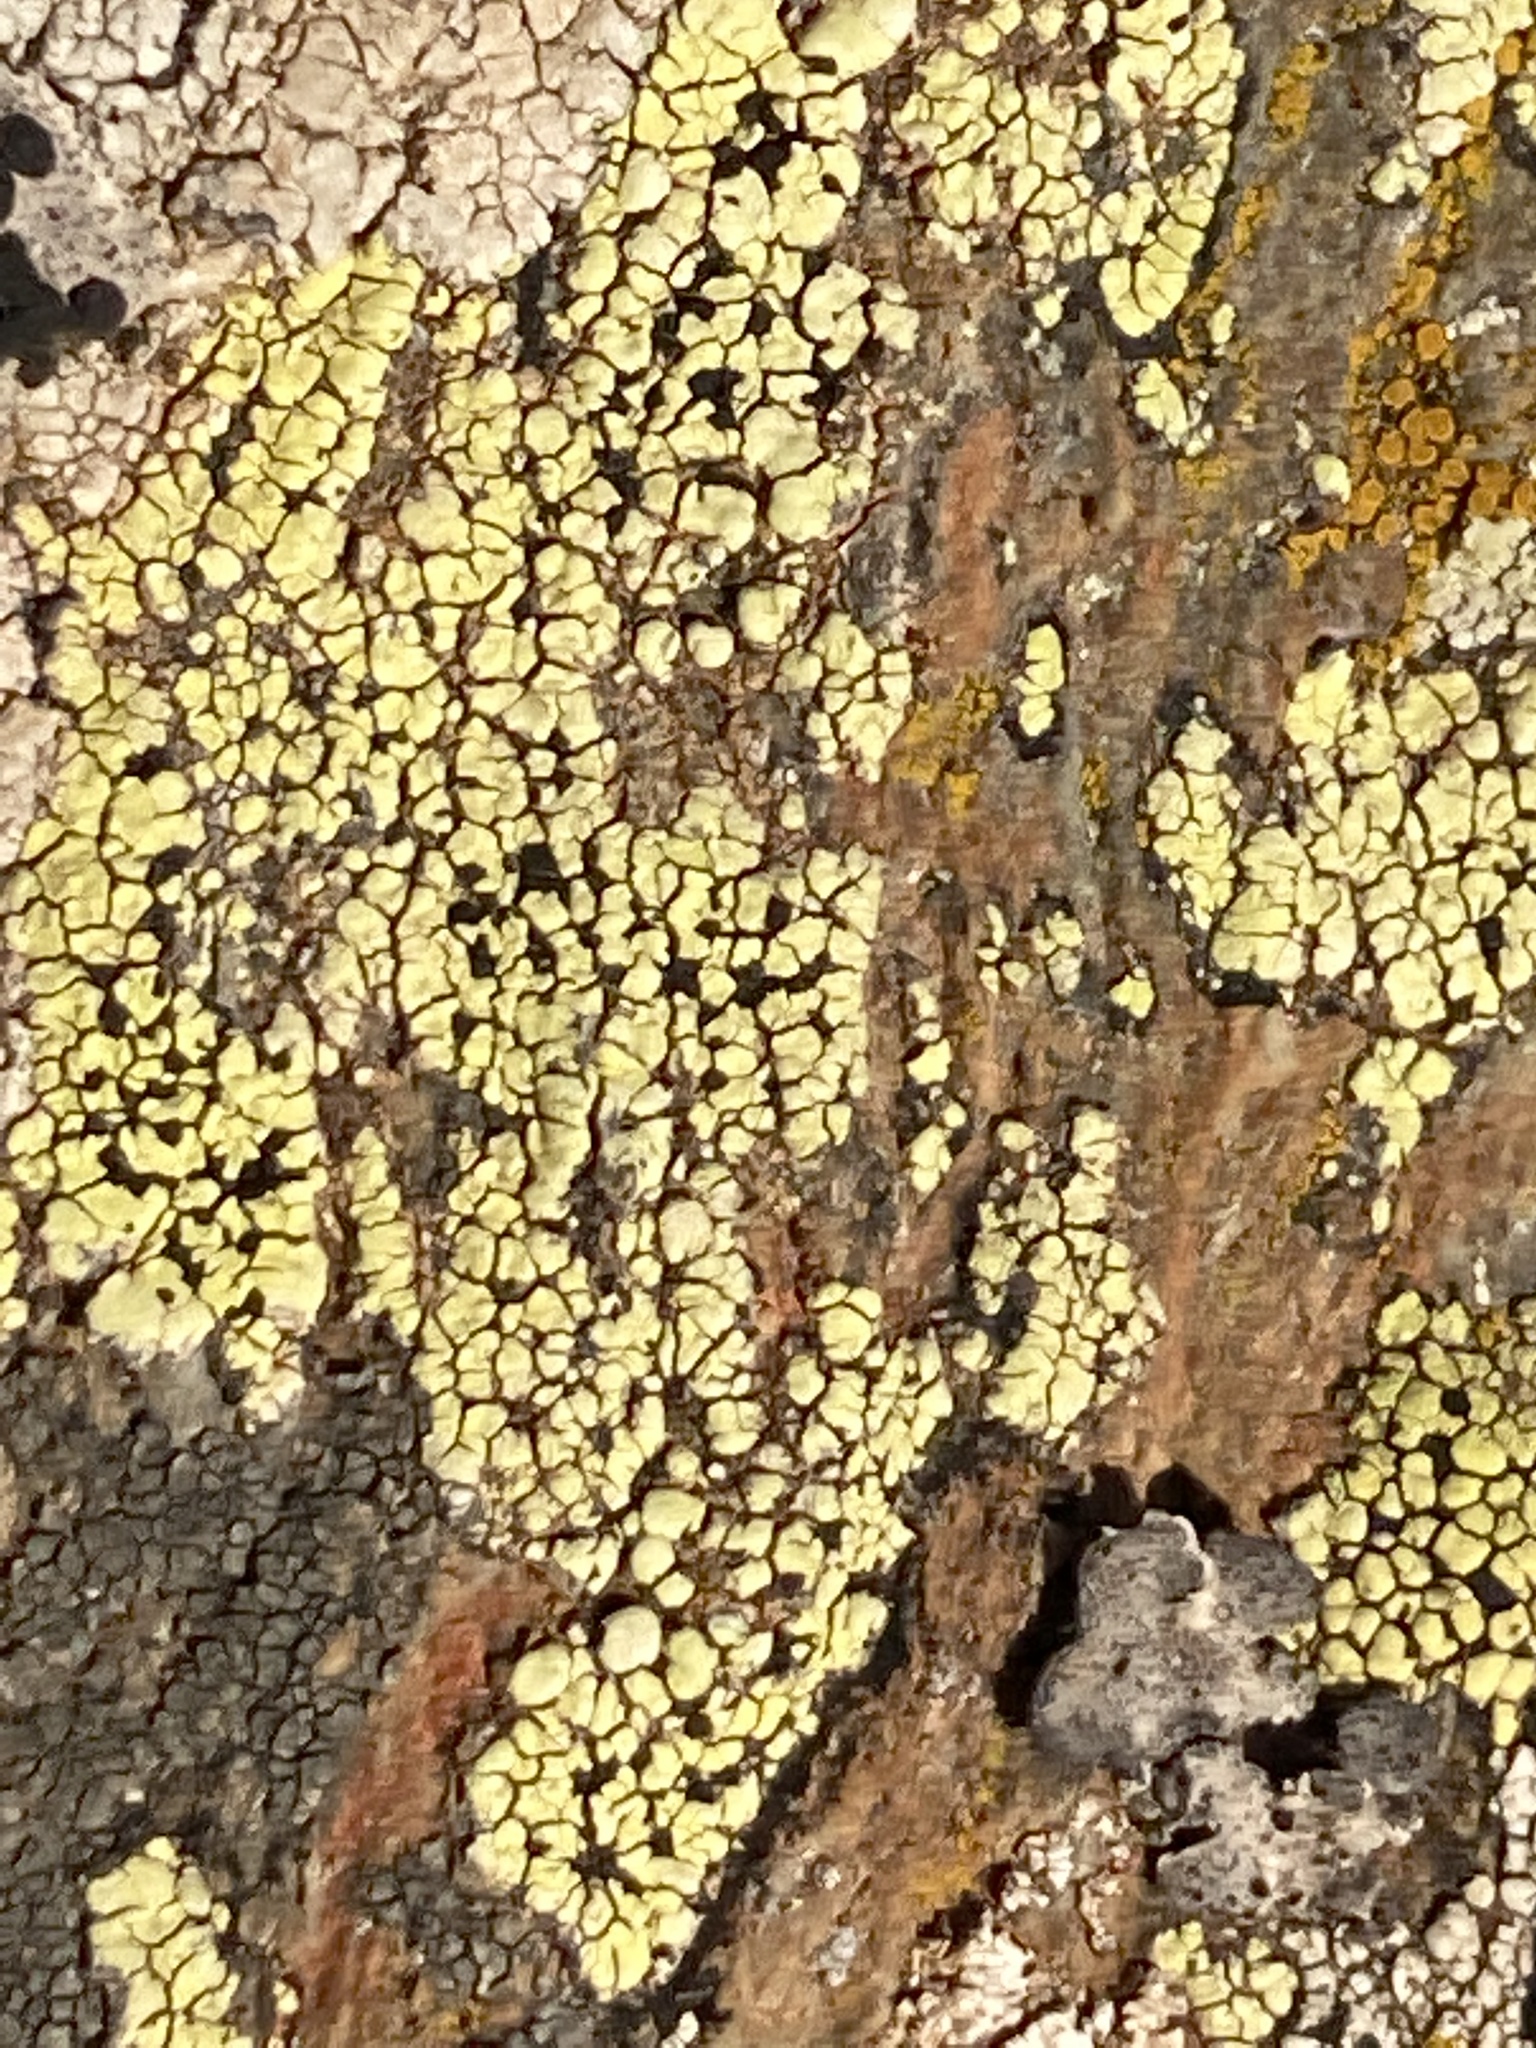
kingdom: Fungi
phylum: Ascomycota
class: Lecanoromycetes
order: Rhizocarpales
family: Rhizocarpaceae
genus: Rhizocarpon
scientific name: Rhizocarpon geographicum
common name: Yellow map lichen
